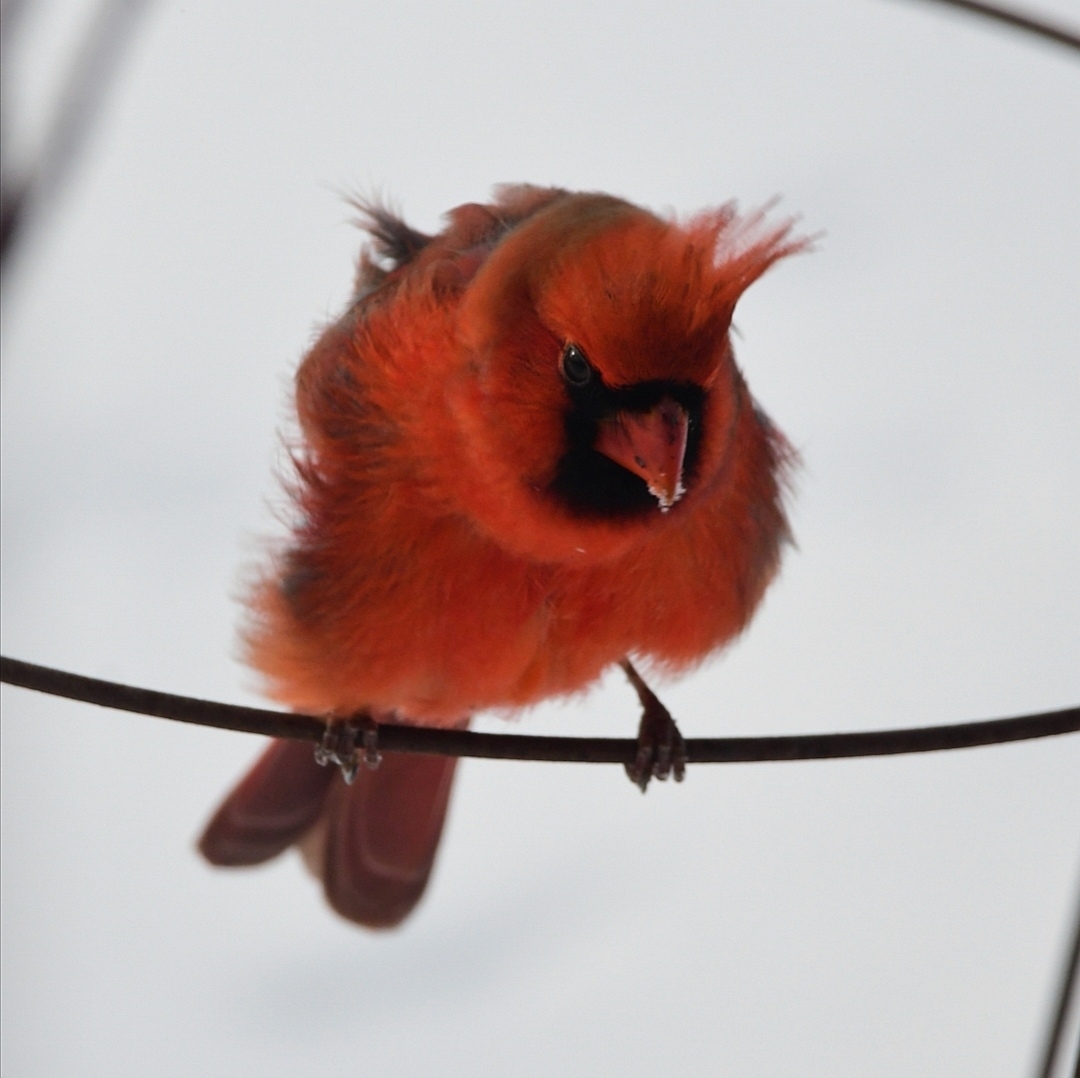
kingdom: Animalia
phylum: Chordata
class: Aves
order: Passeriformes
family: Cardinalidae
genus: Cardinalis
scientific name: Cardinalis cardinalis
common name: Northern cardinal
